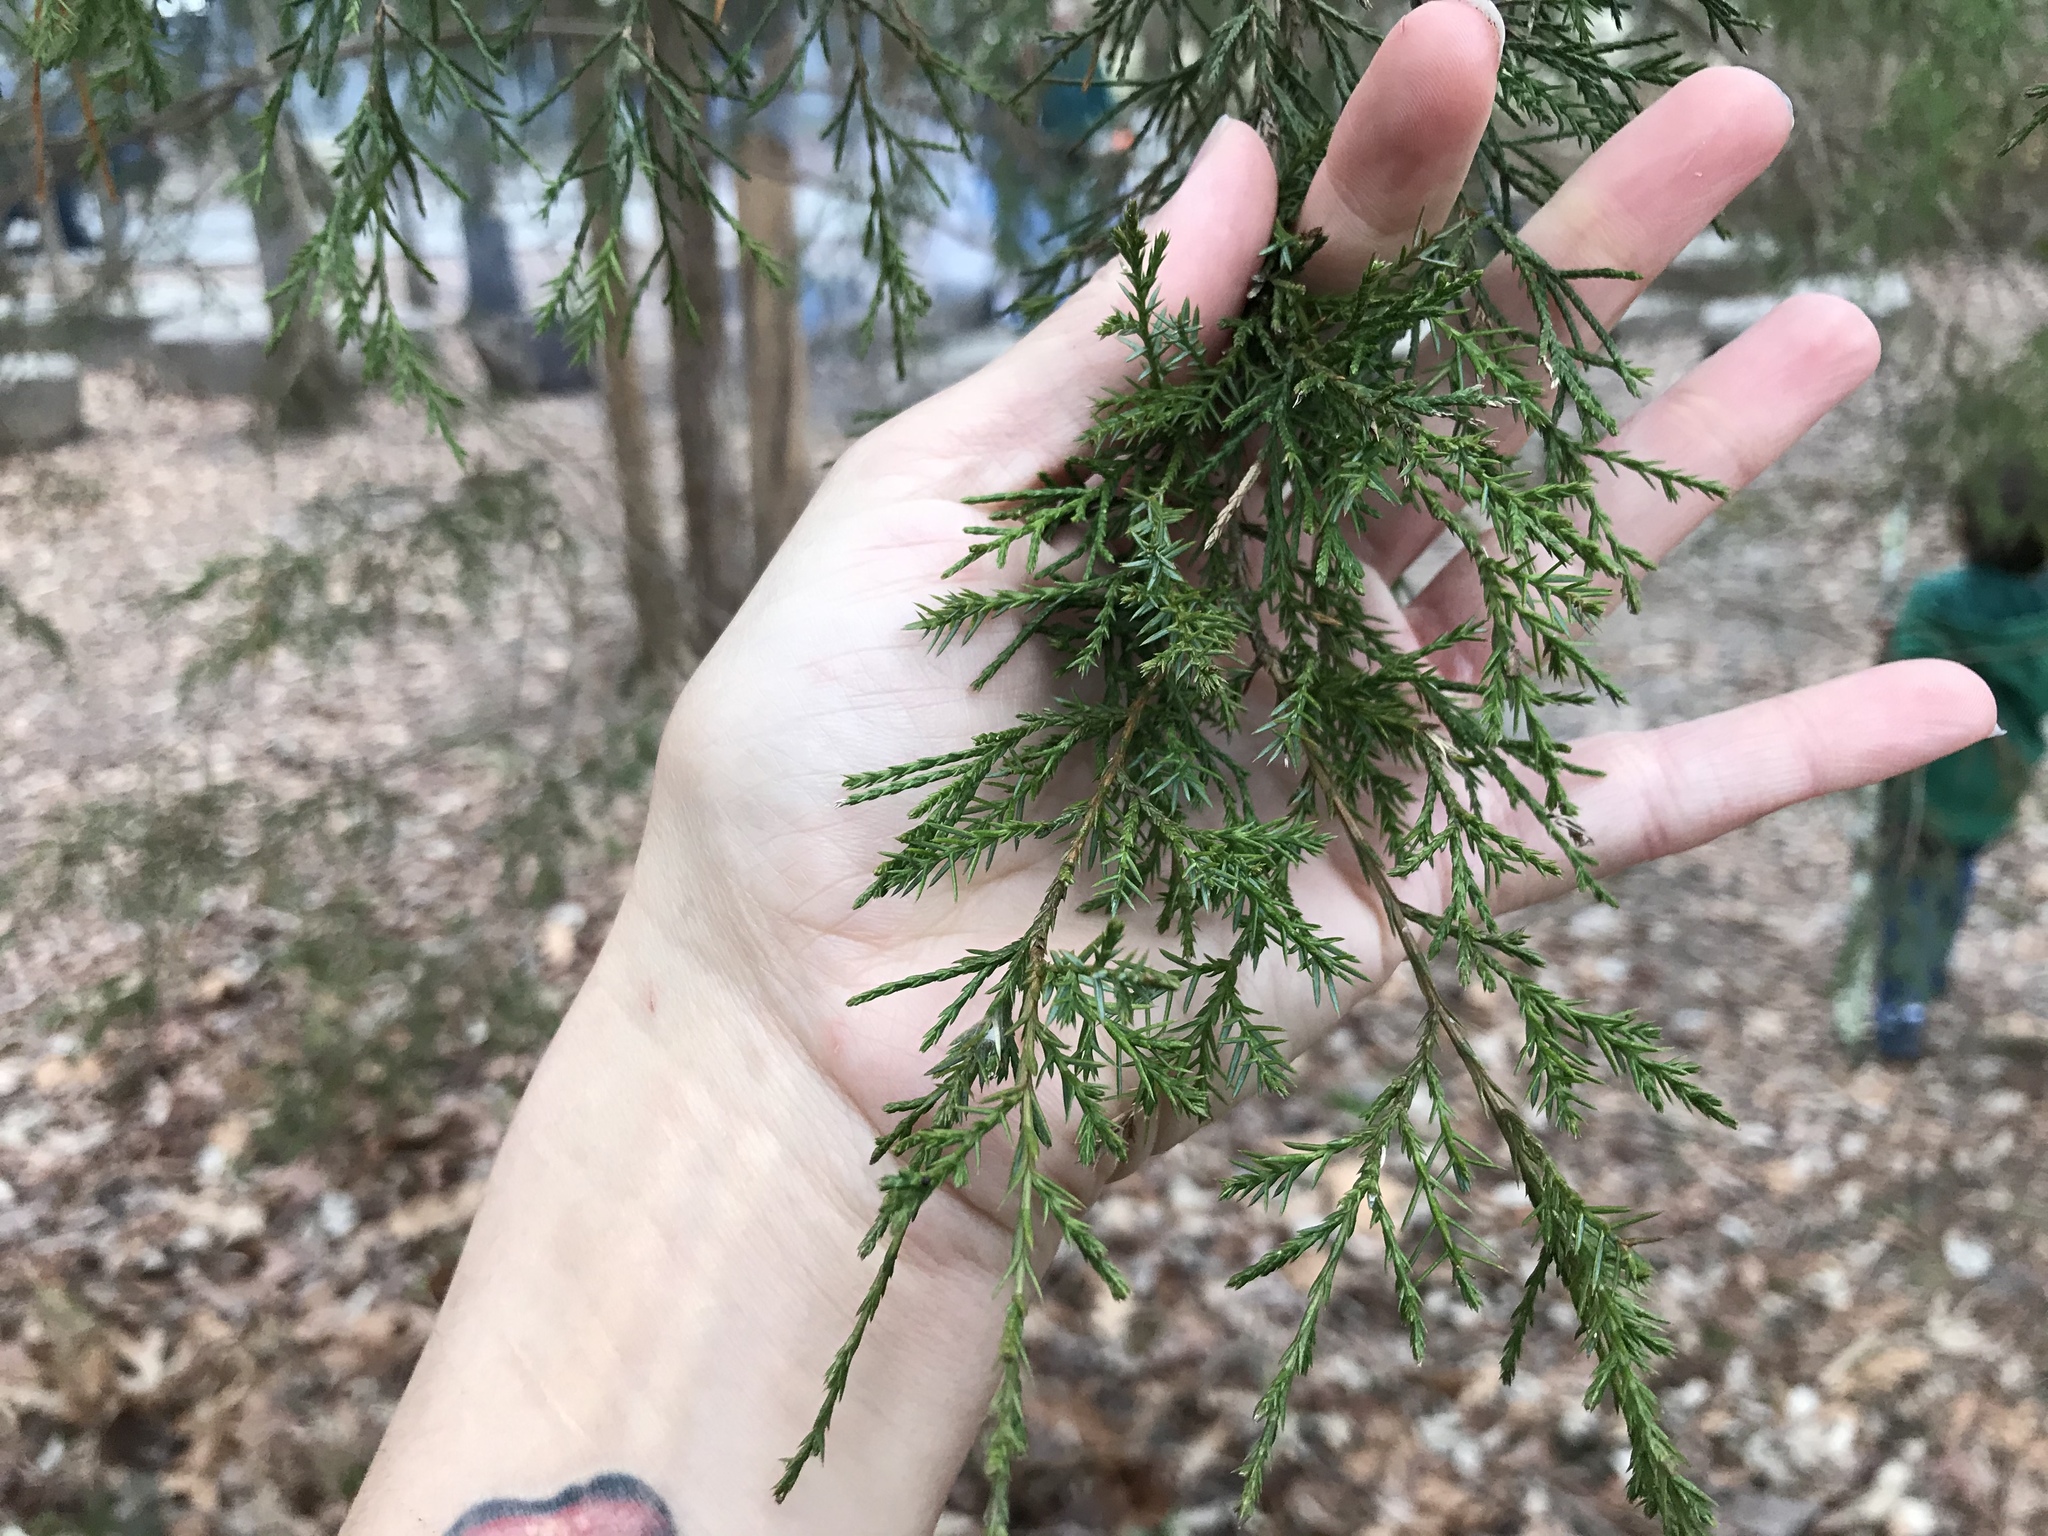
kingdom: Plantae
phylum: Tracheophyta
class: Pinopsida
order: Pinales
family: Cupressaceae
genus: Juniperus
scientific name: Juniperus virginiana
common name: Red juniper
